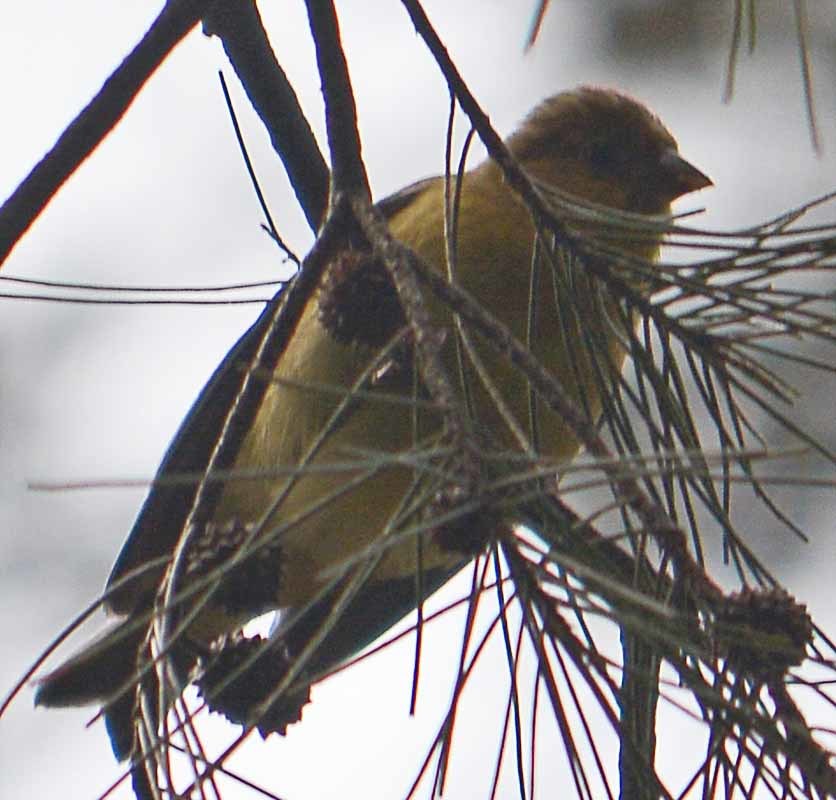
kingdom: Animalia
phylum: Chordata
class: Aves
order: Passeriformes
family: Fringillidae
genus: Spinus
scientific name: Spinus psaltria
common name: Lesser goldfinch
